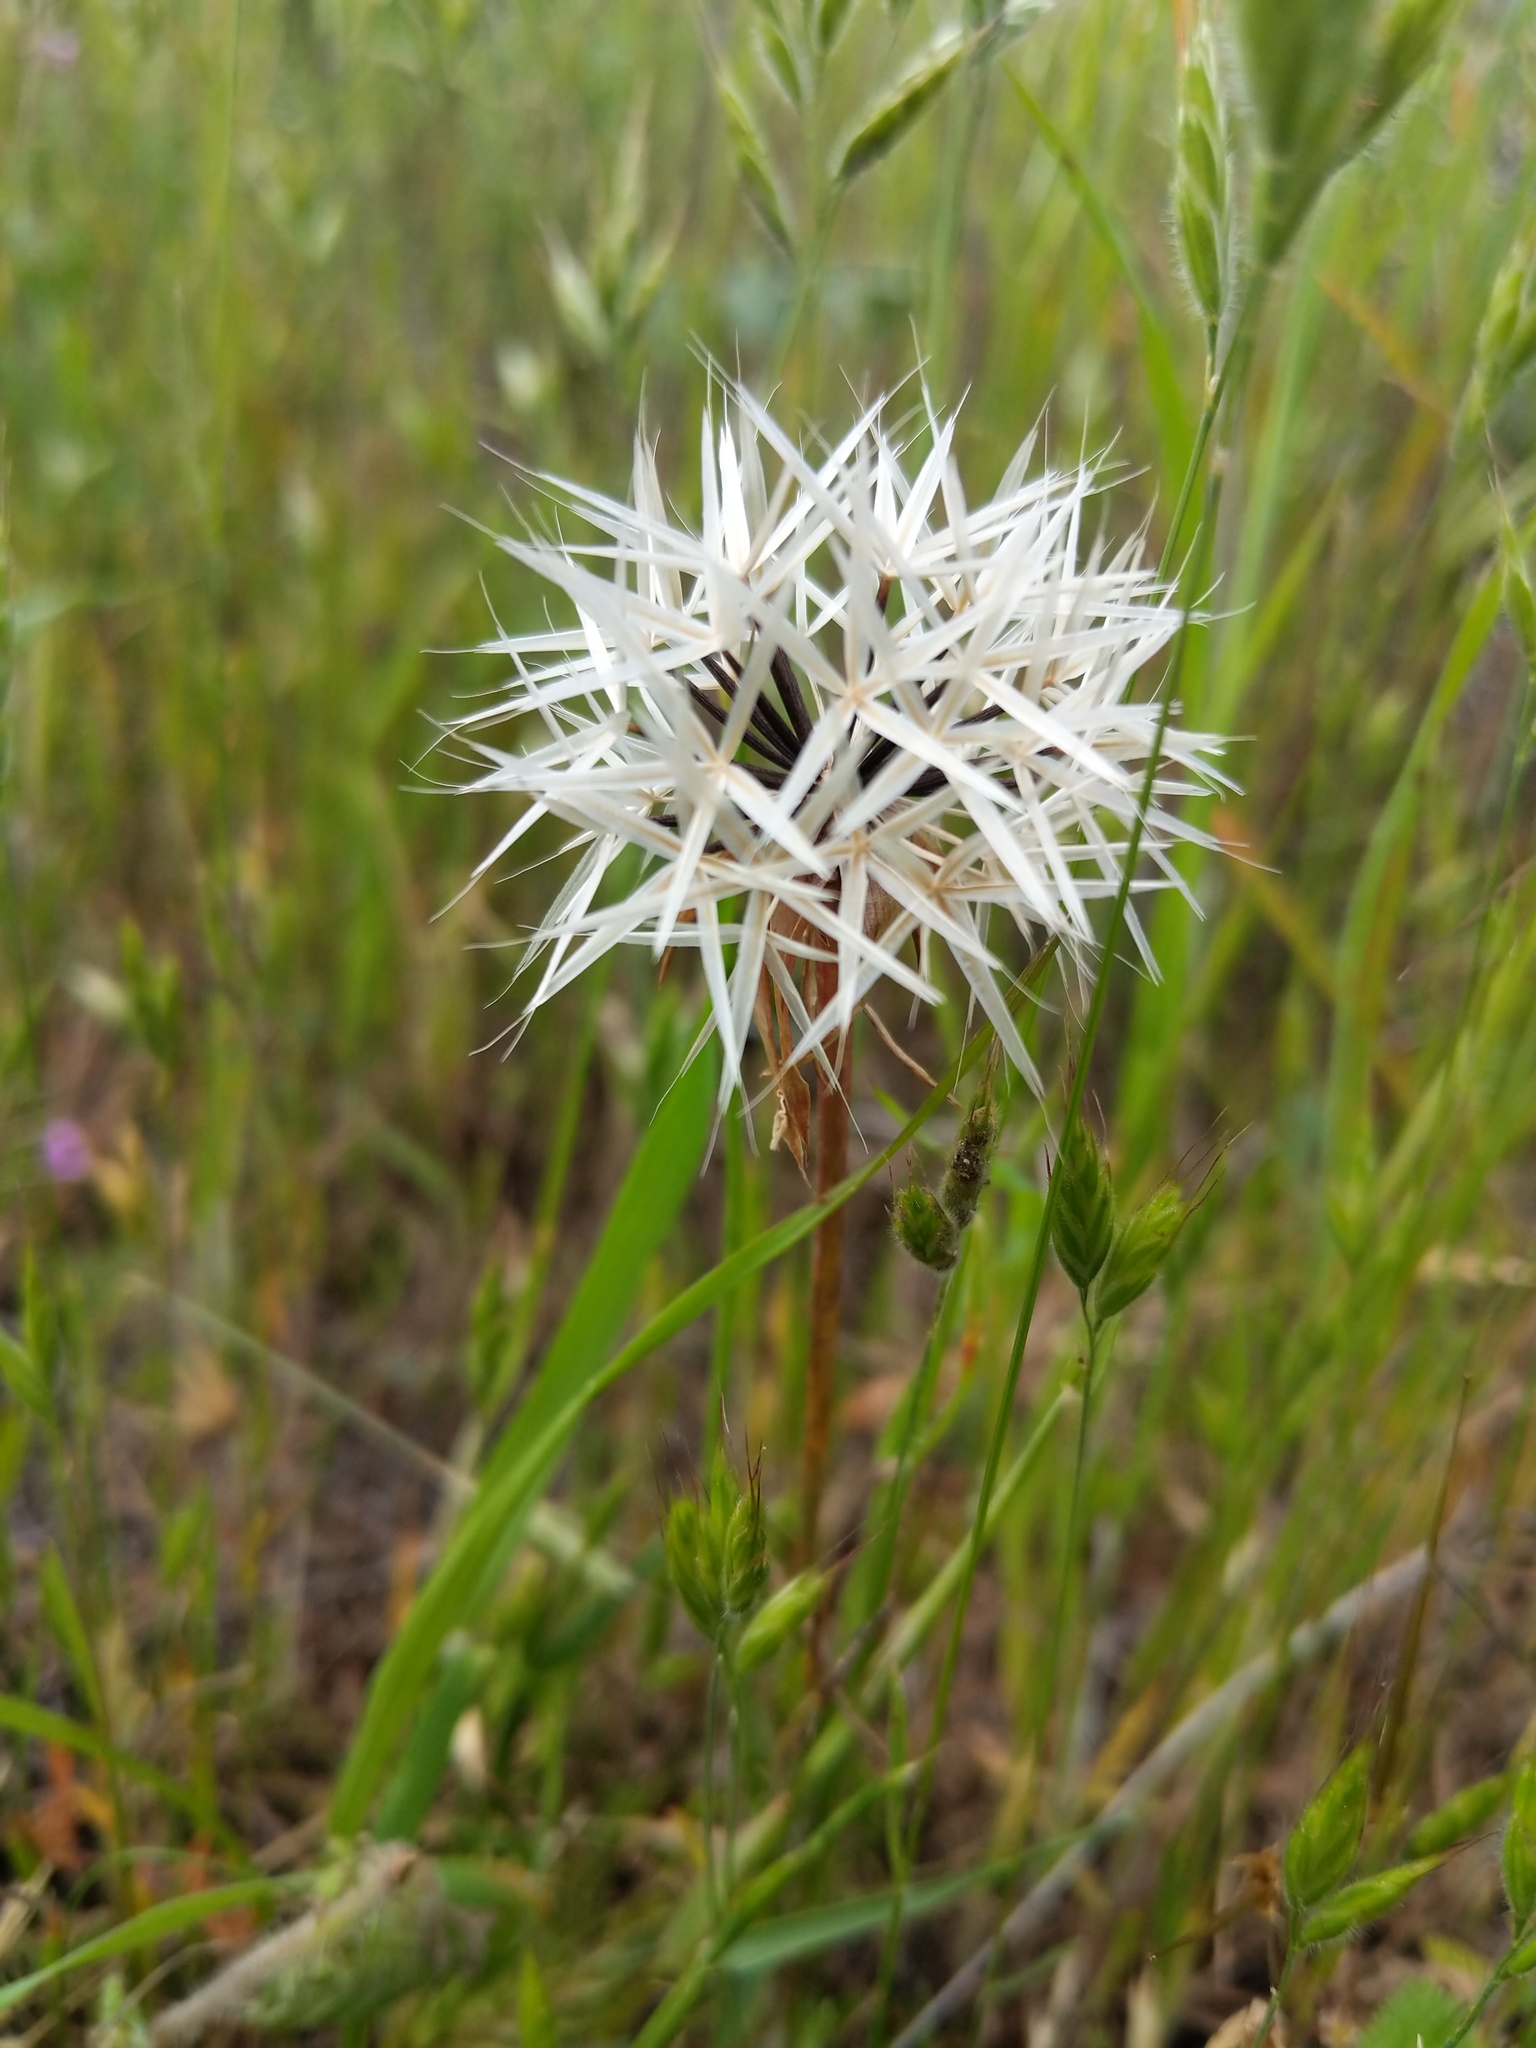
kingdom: Plantae
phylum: Tracheophyta
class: Magnoliopsida
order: Asterales
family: Asteraceae
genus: Microseris
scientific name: Microseris lindleyi
